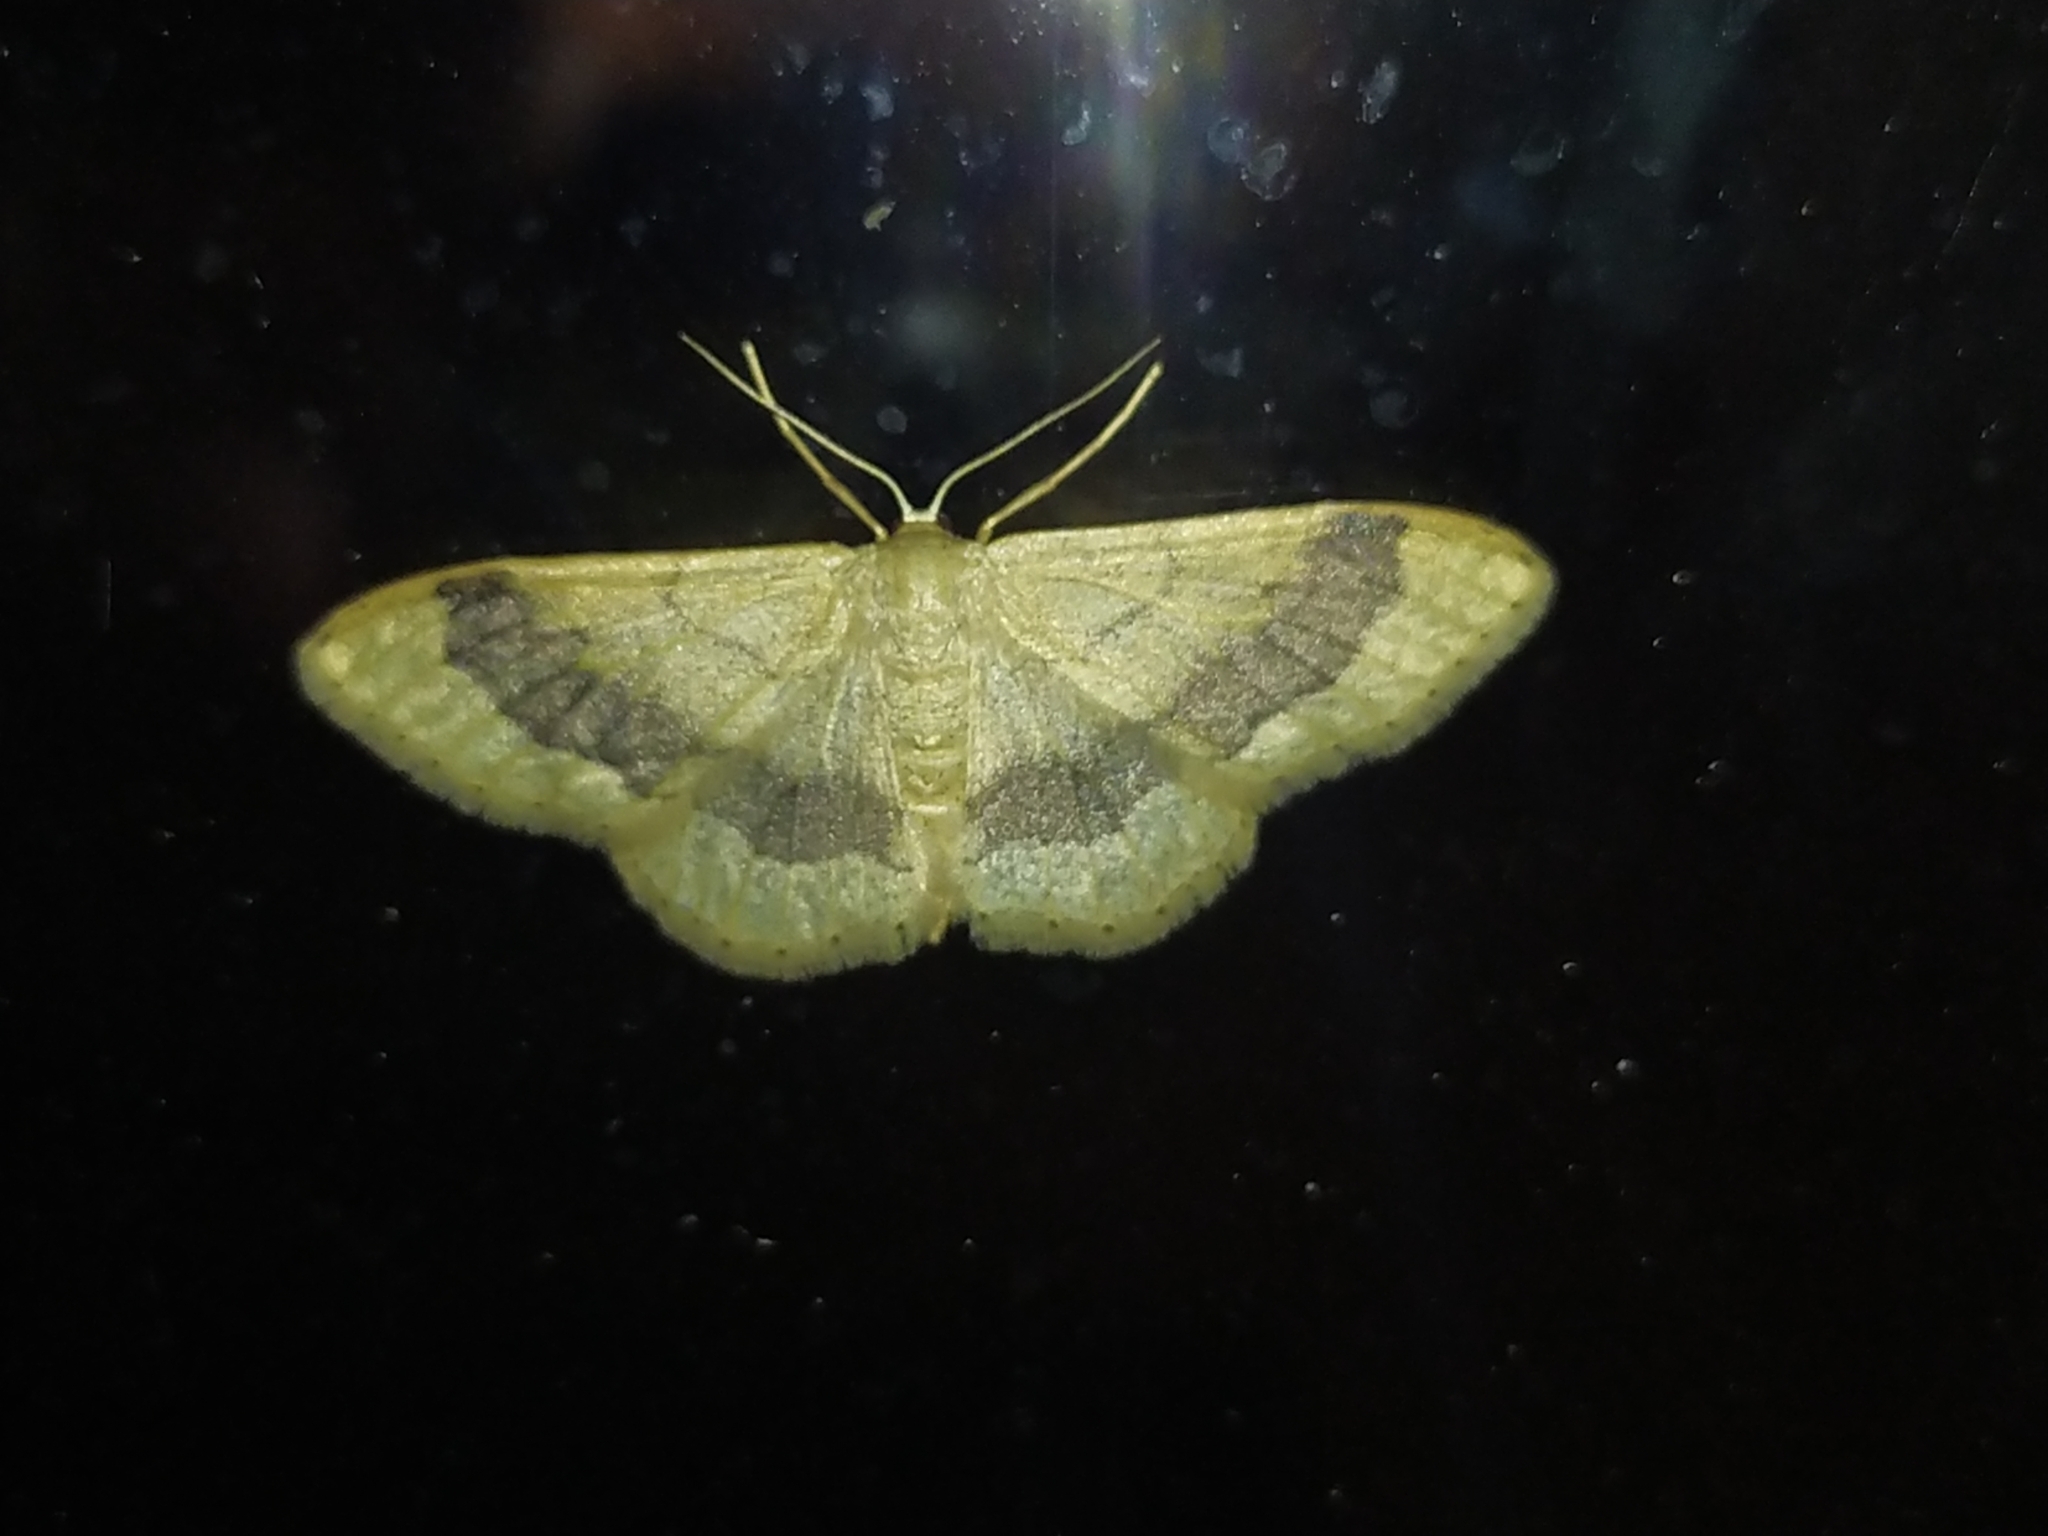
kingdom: Animalia
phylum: Arthropoda
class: Insecta
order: Lepidoptera
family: Geometridae
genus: Idaea
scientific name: Idaea aversata
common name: Riband wave
